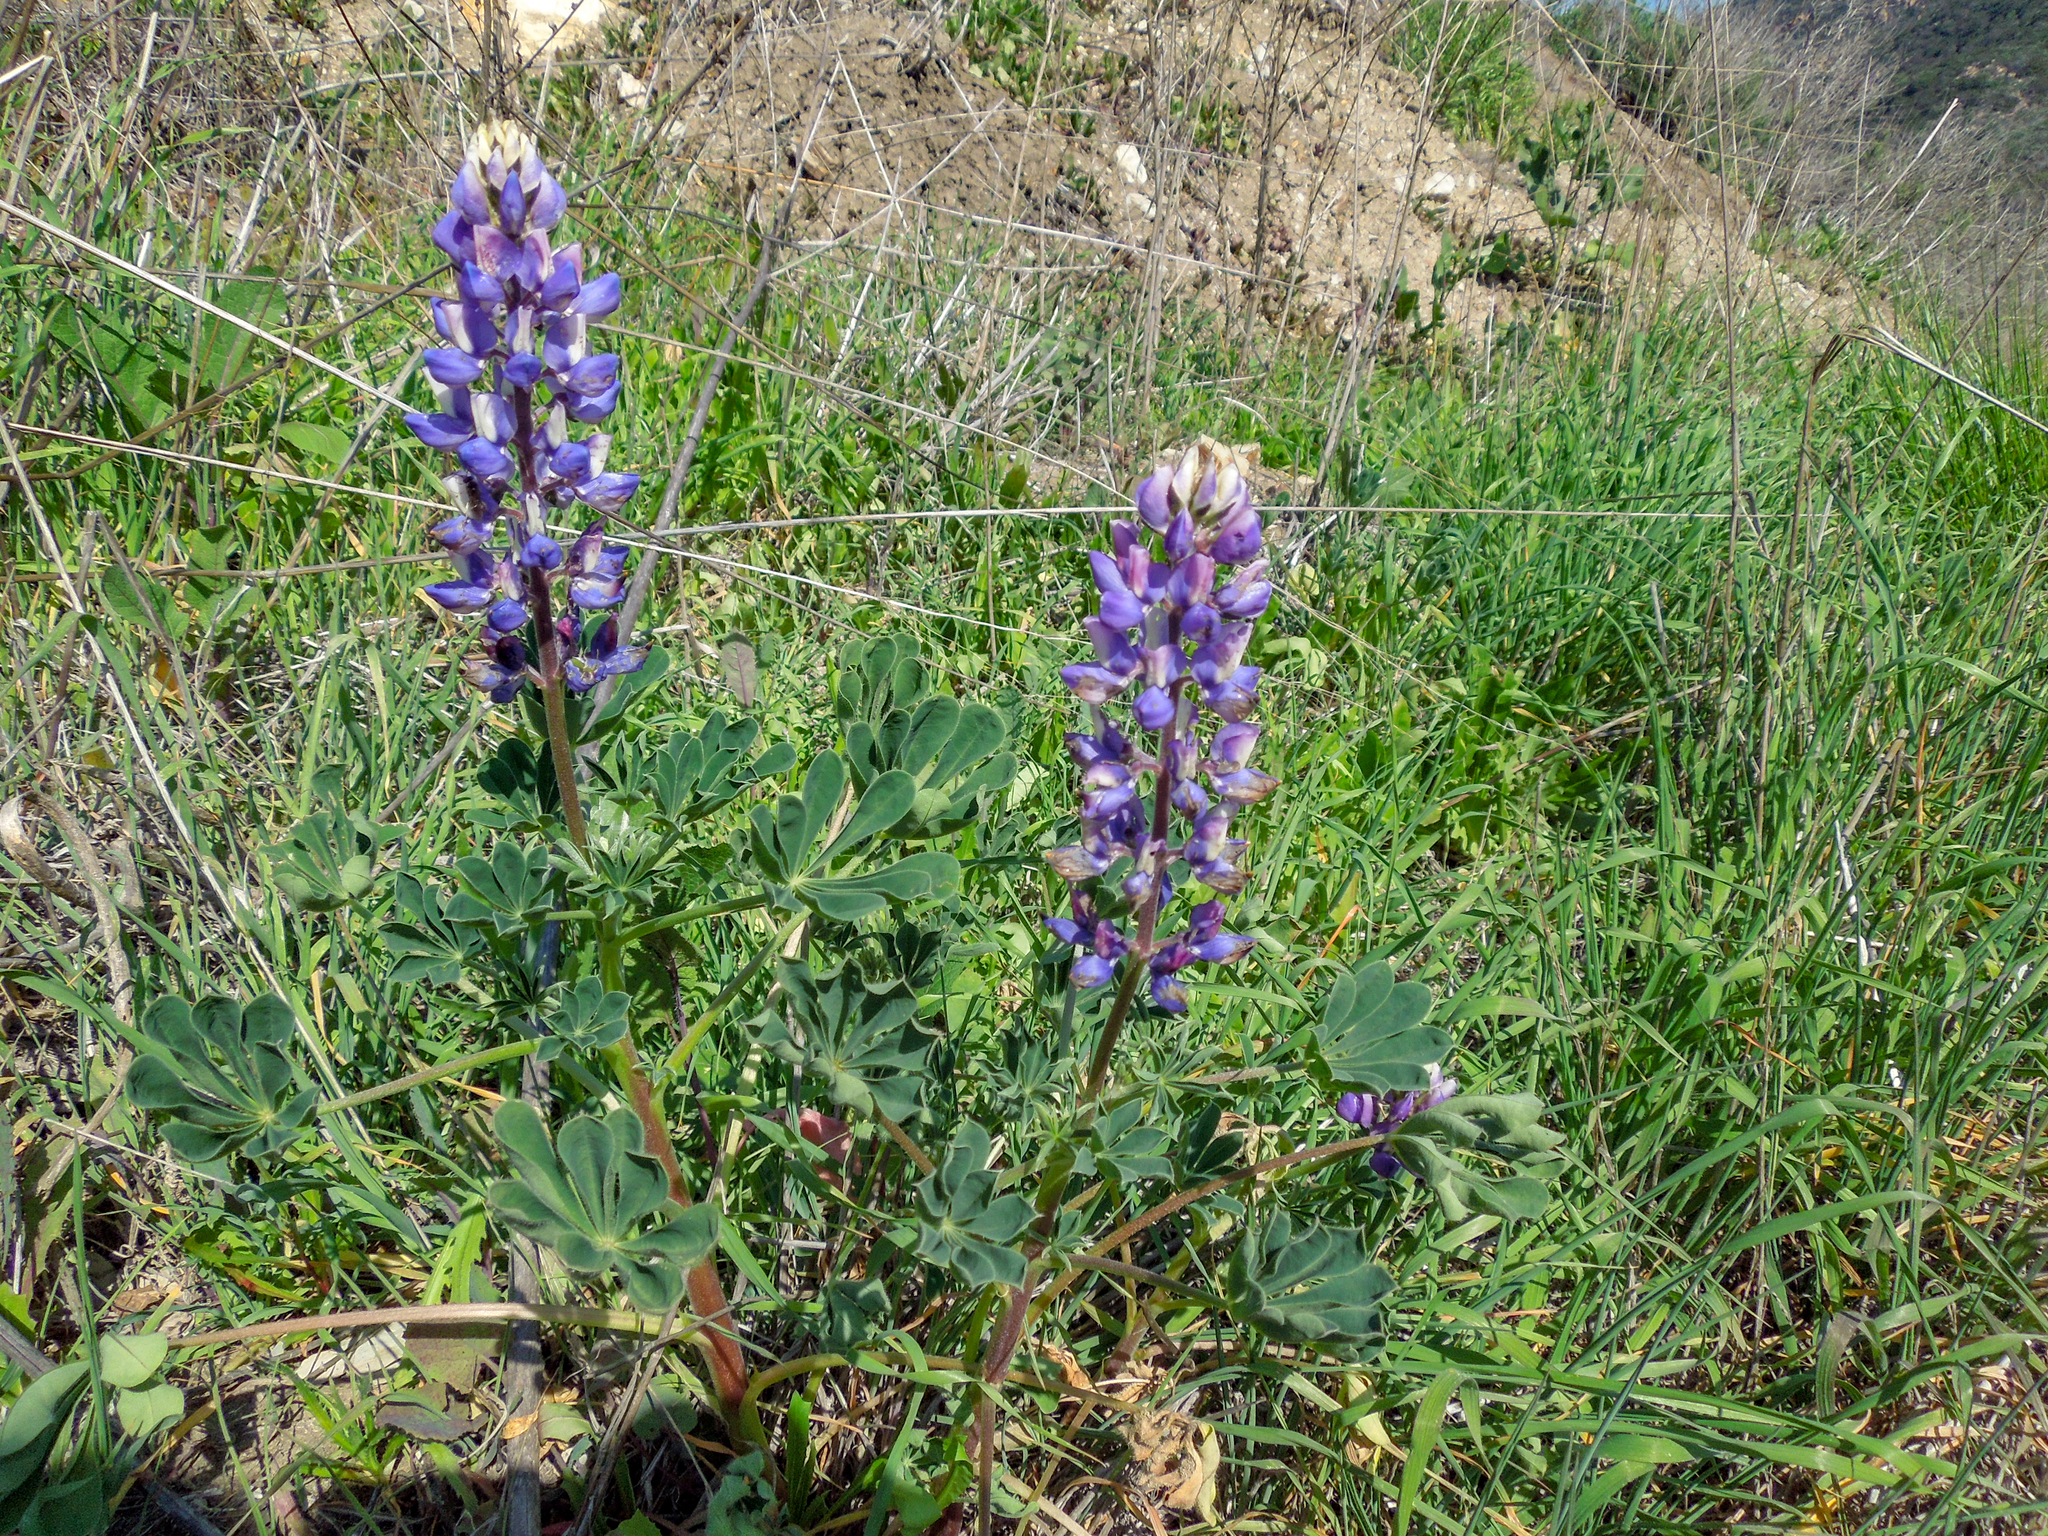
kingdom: Plantae
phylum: Tracheophyta
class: Magnoliopsida
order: Fabales
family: Fabaceae
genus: Lupinus
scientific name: Lupinus succulentus
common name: Arroyo lupine
